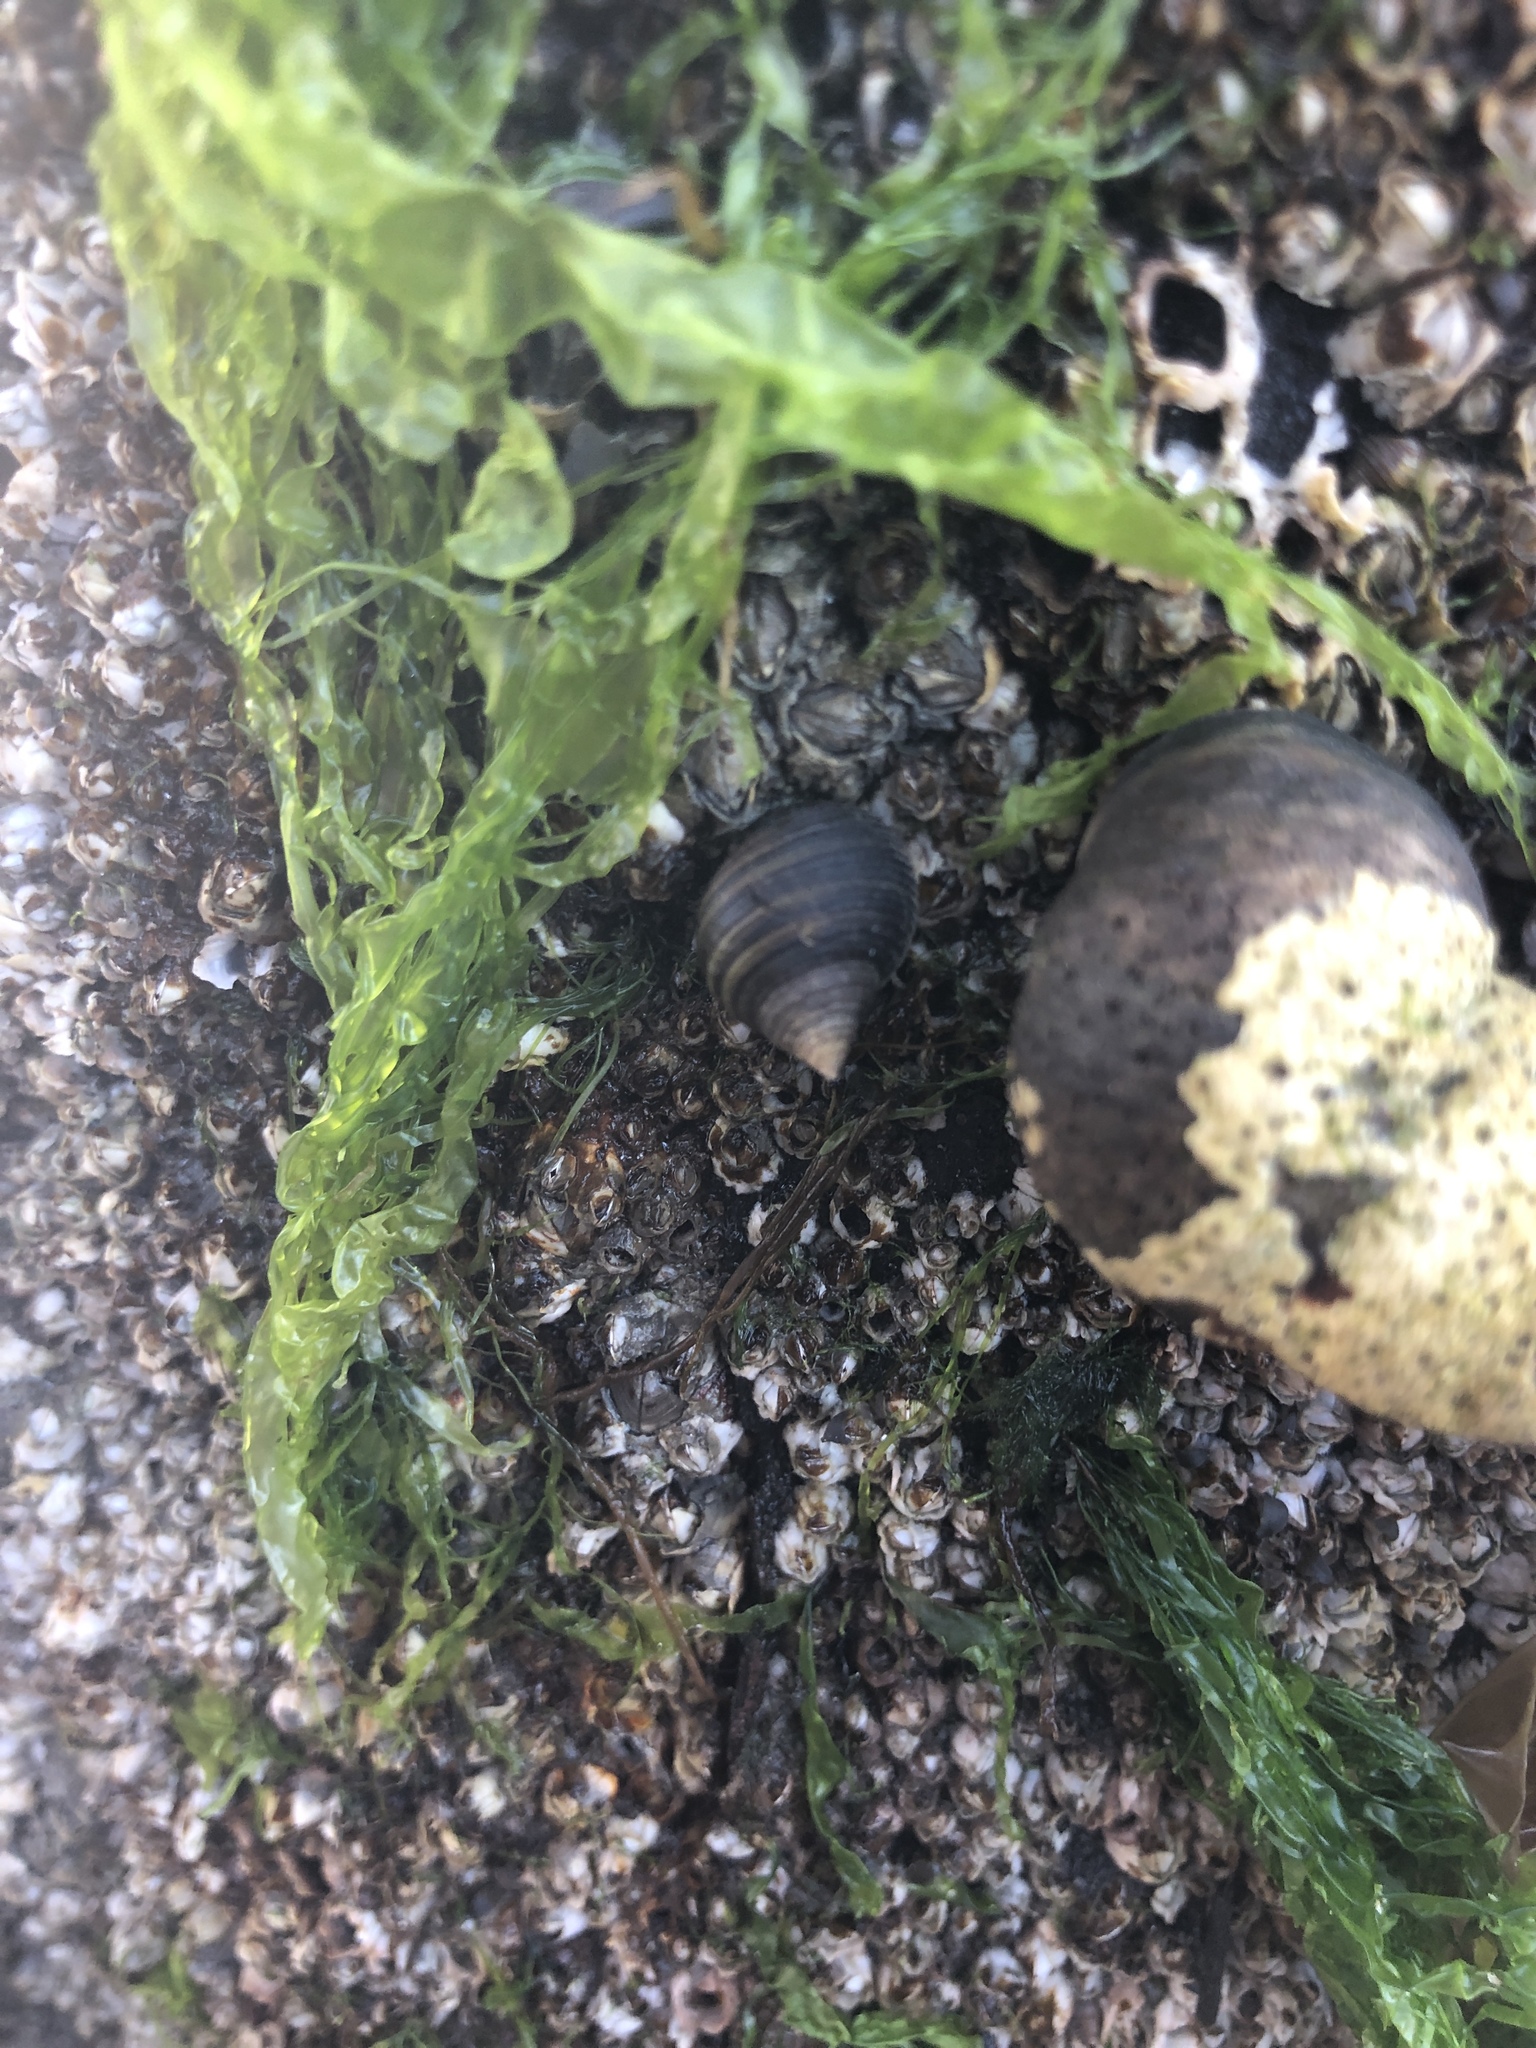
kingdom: Animalia
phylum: Mollusca
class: Gastropoda
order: Littorinimorpha
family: Littorinidae
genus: Littorina
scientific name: Littorina littorea
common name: Common periwinkle
